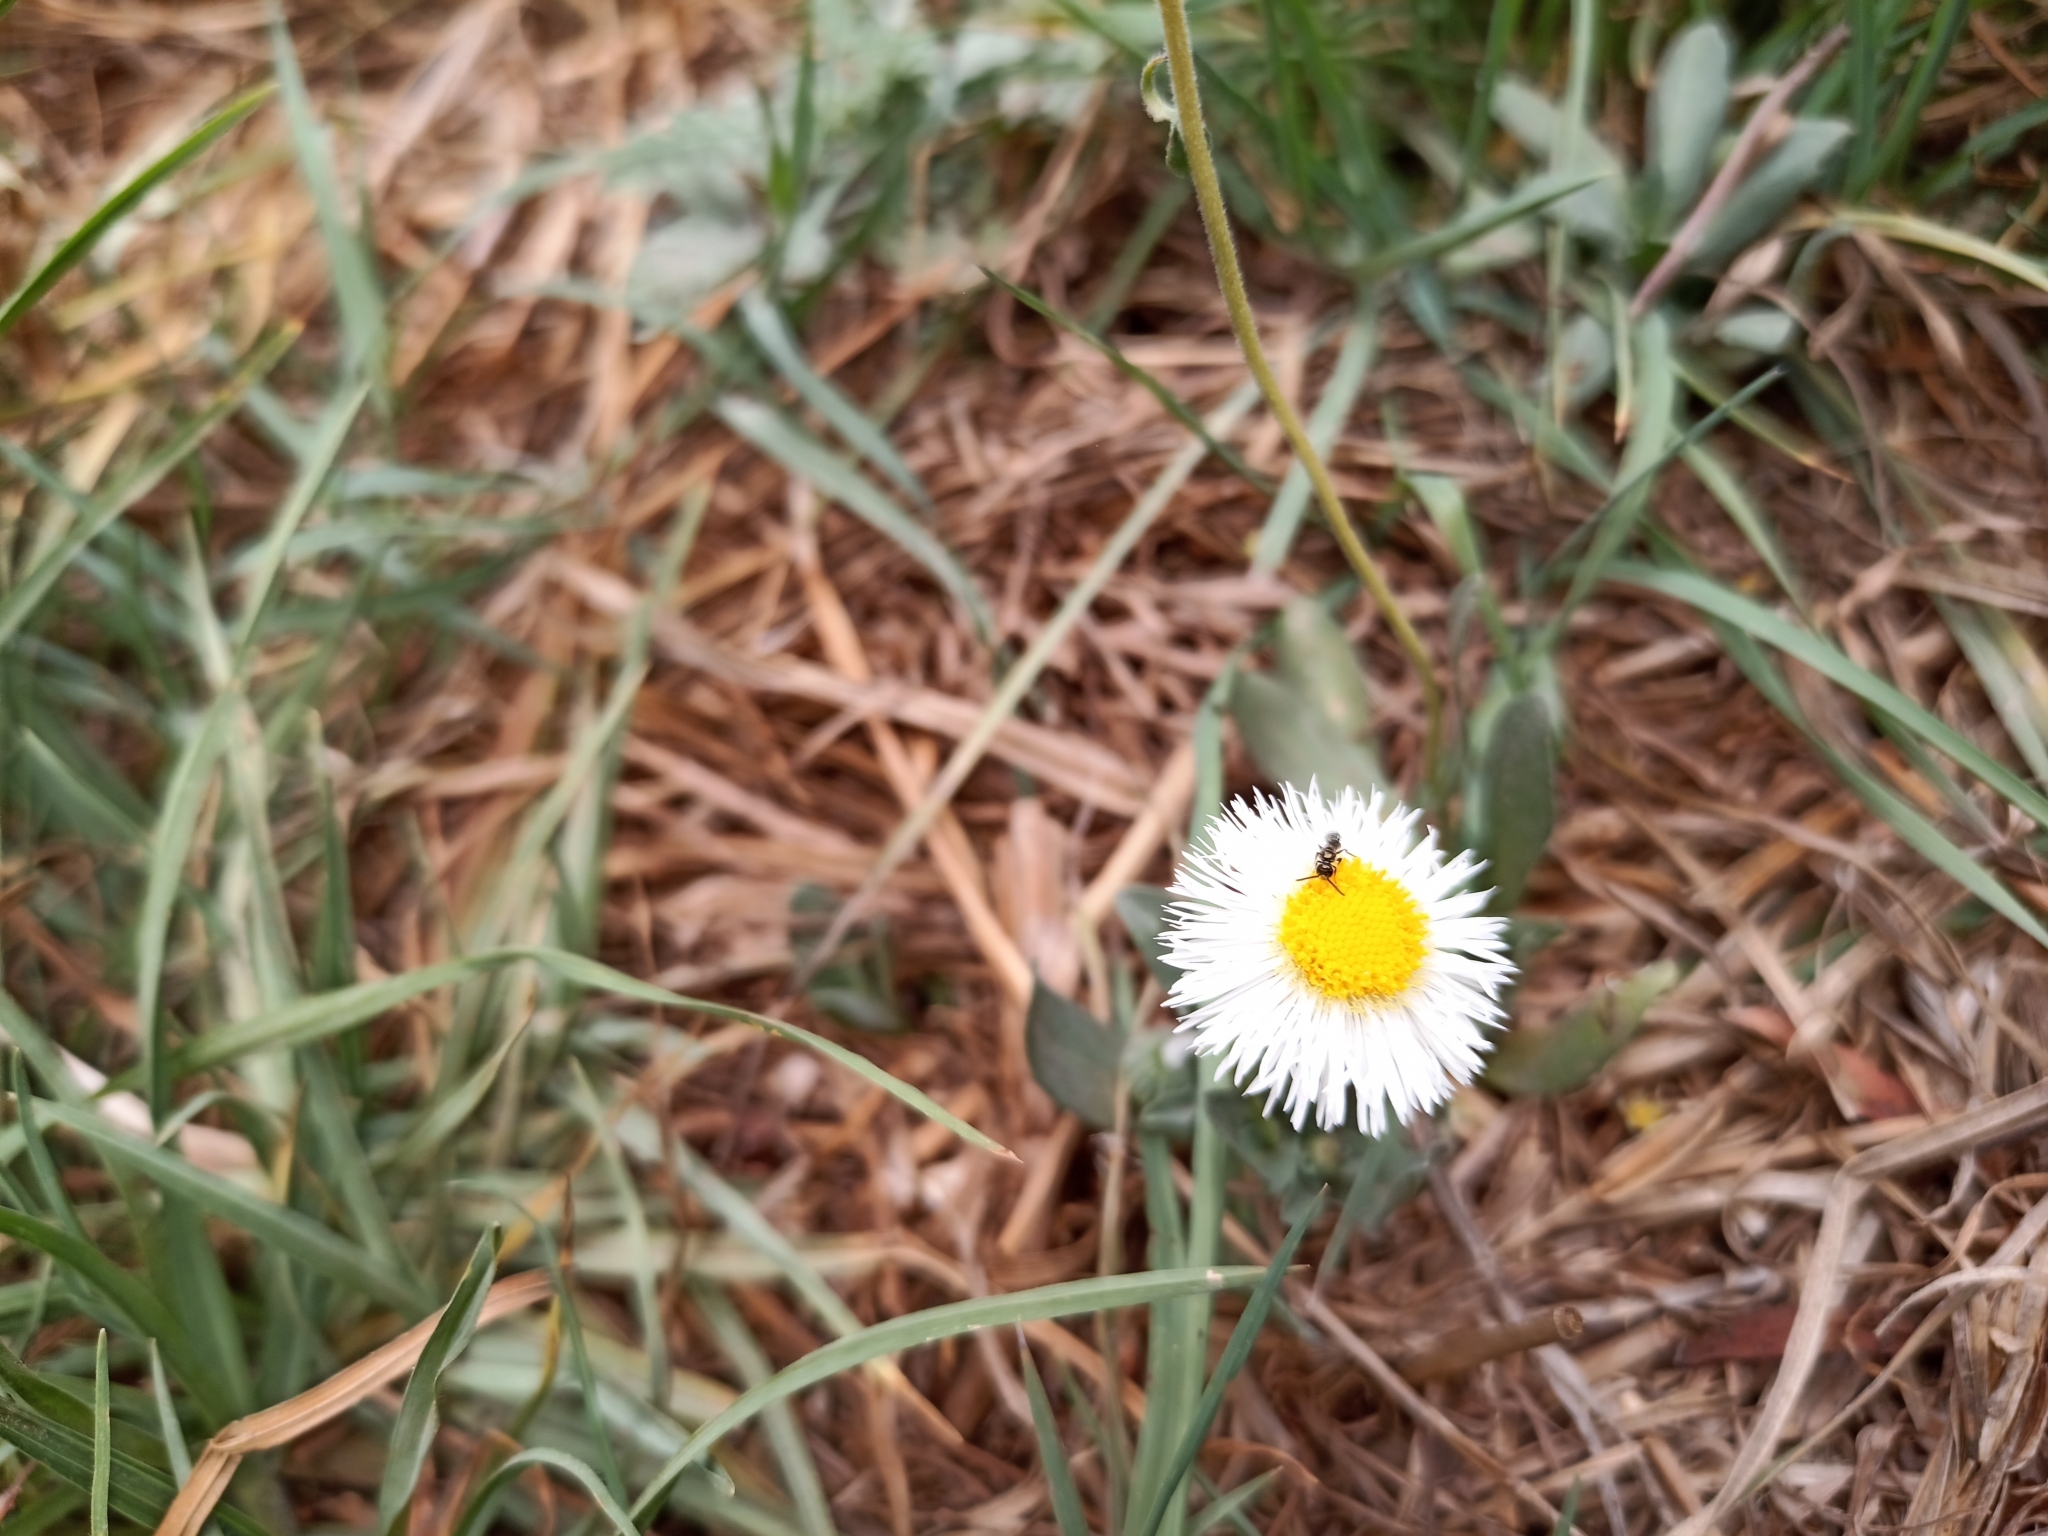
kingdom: Plantae
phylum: Tracheophyta
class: Magnoliopsida
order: Asterales
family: Asteraceae
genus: Erigeron
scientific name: Erigeron longipes
